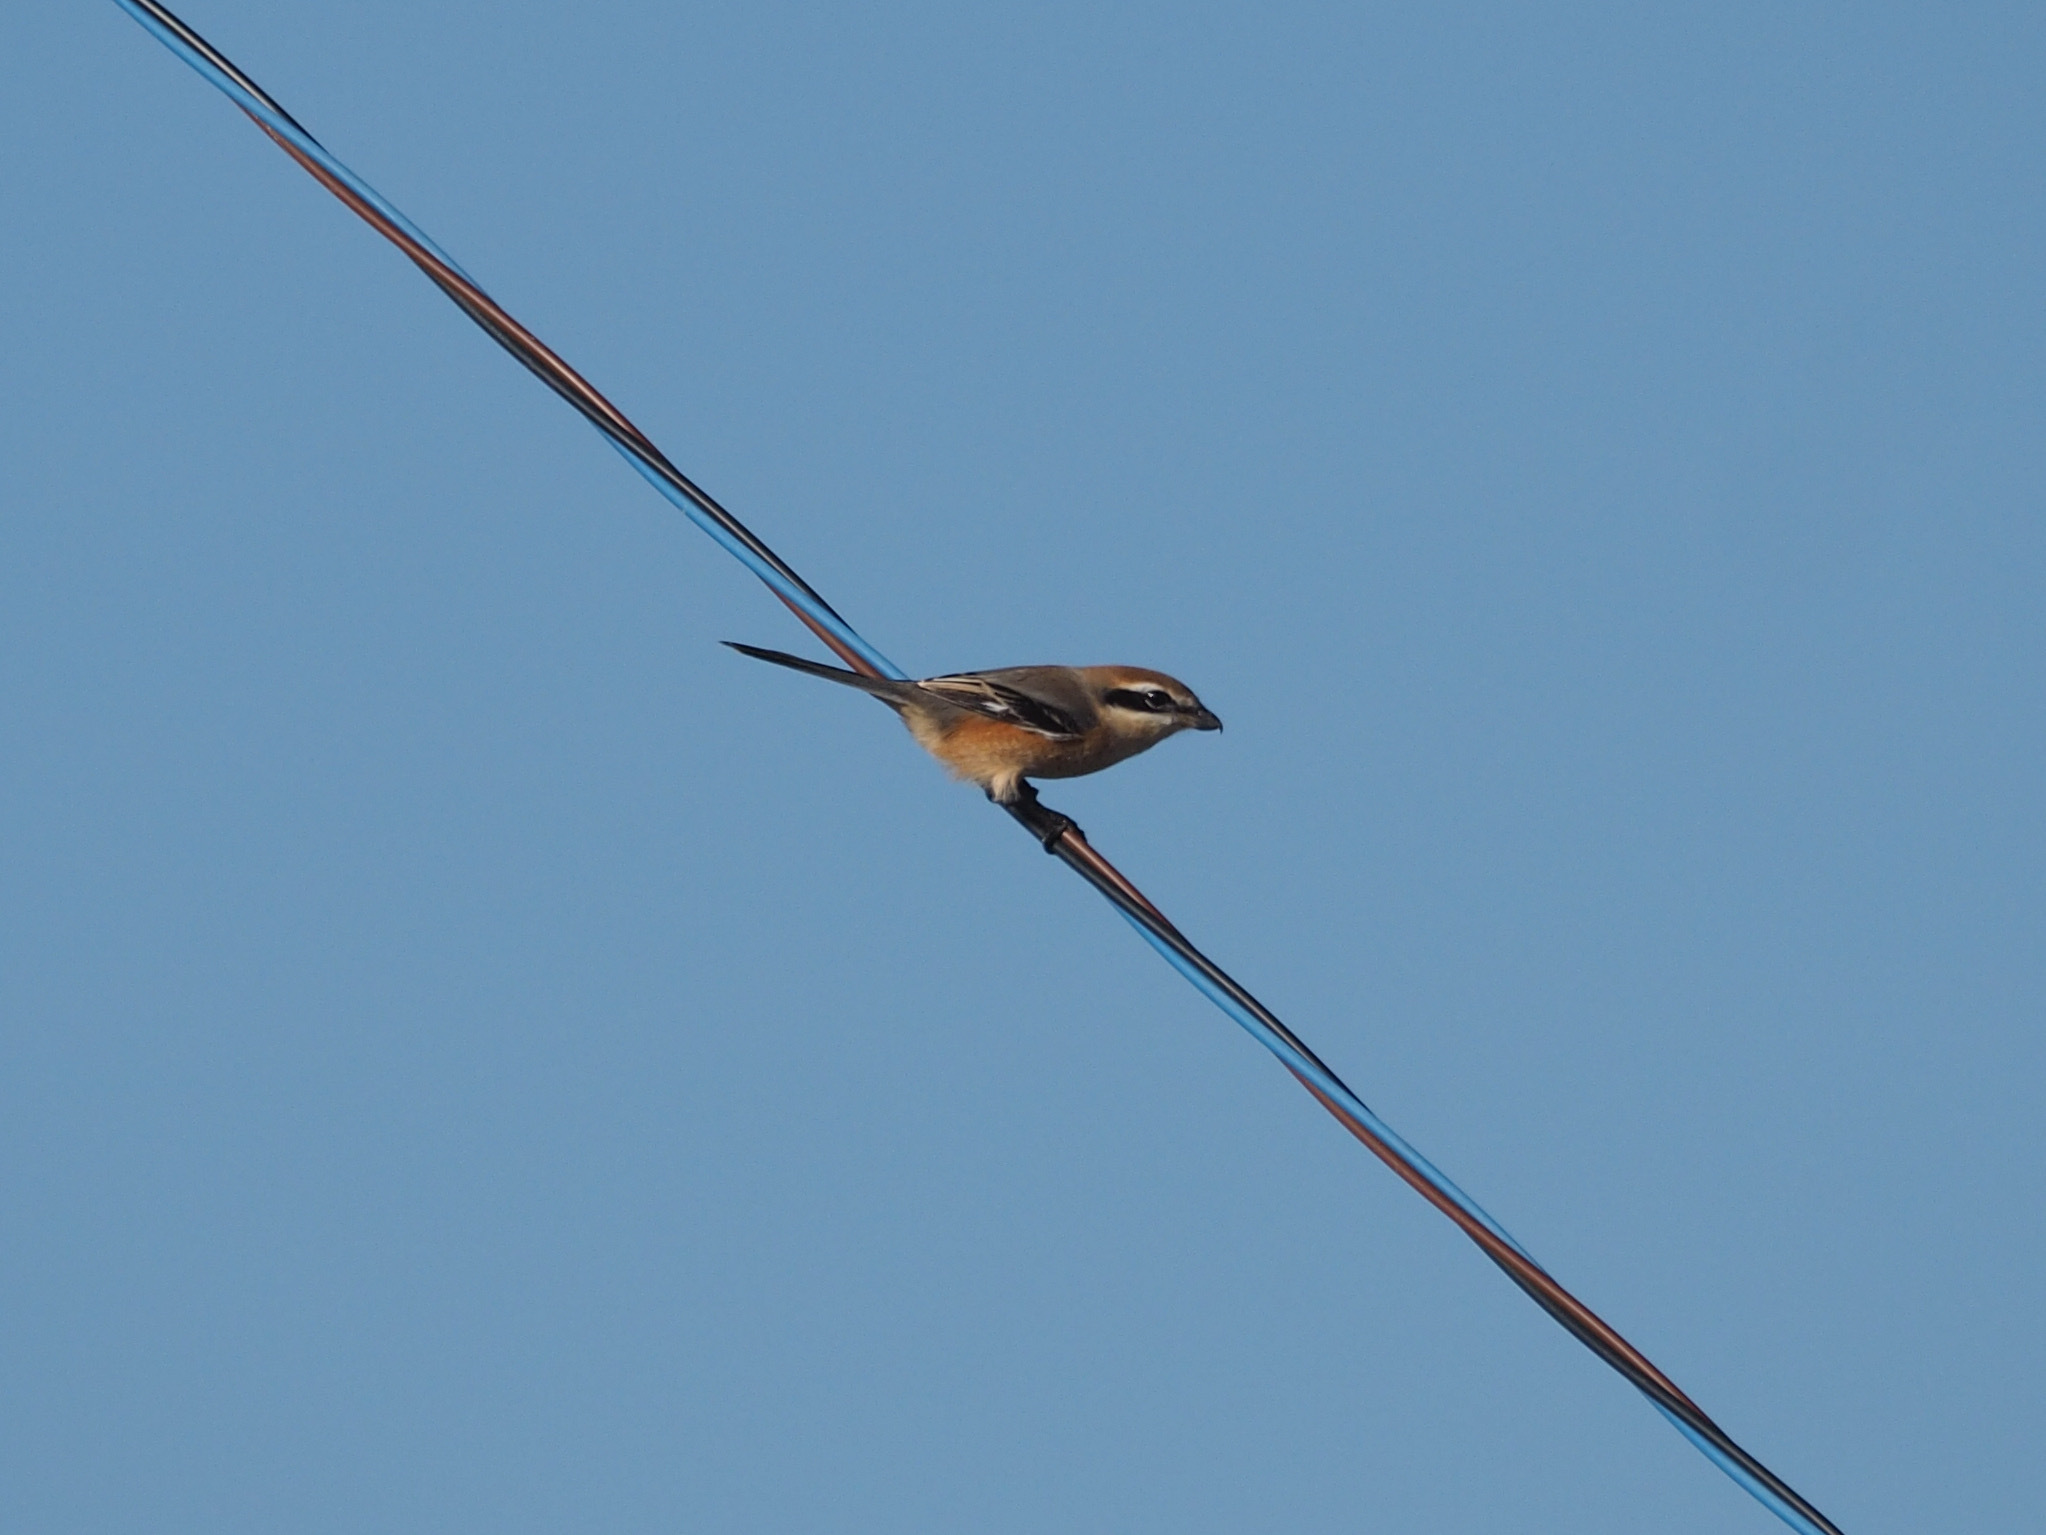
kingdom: Animalia
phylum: Chordata
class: Aves
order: Passeriformes
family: Laniidae
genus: Lanius
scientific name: Lanius bucephalus
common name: Bull-headed shrike
